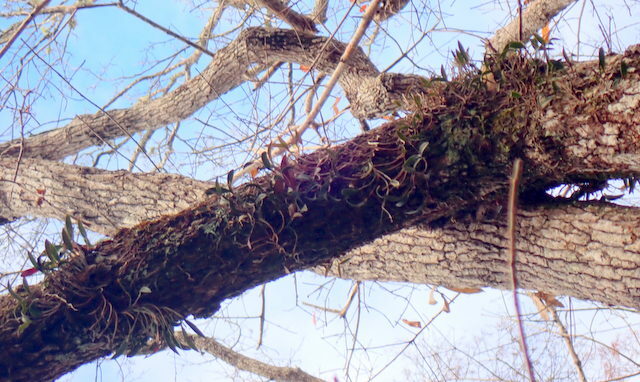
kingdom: Plantae
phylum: Tracheophyta
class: Liliopsida
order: Asparagales
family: Orchidaceae
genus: Epidendrum
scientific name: Epidendrum conopseum
